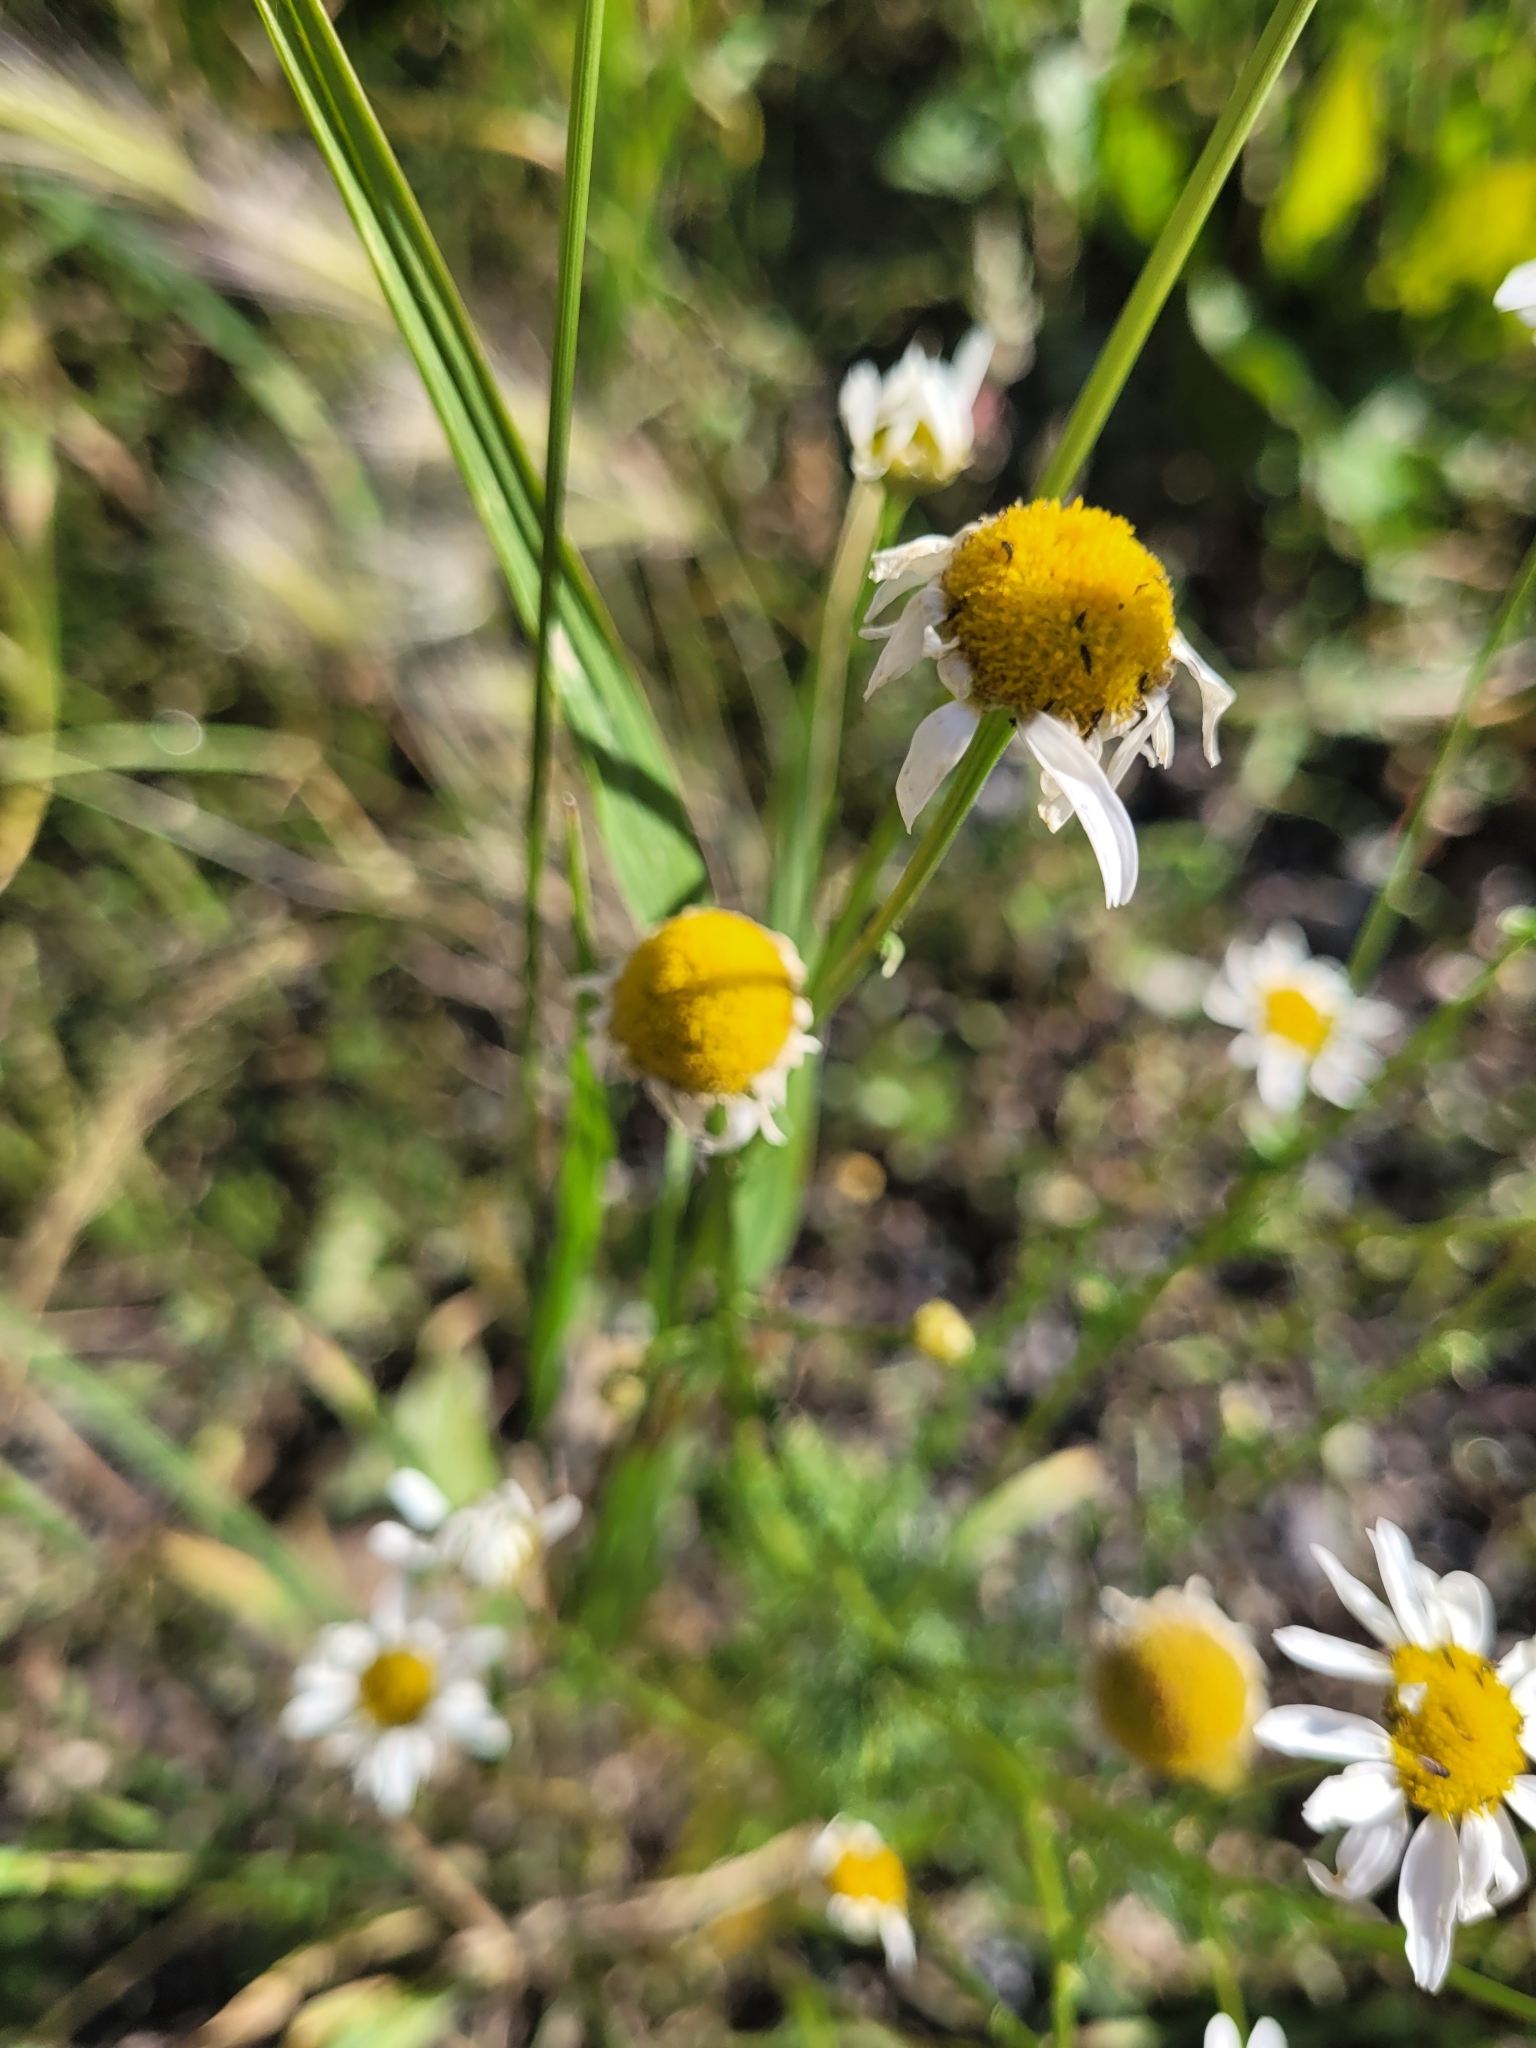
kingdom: Plantae
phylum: Tracheophyta
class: Magnoliopsida
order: Asterales
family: Asteraceae
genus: Tripleurospermum
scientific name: Tripleurospermum inodorum
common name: Scentless mayweed
